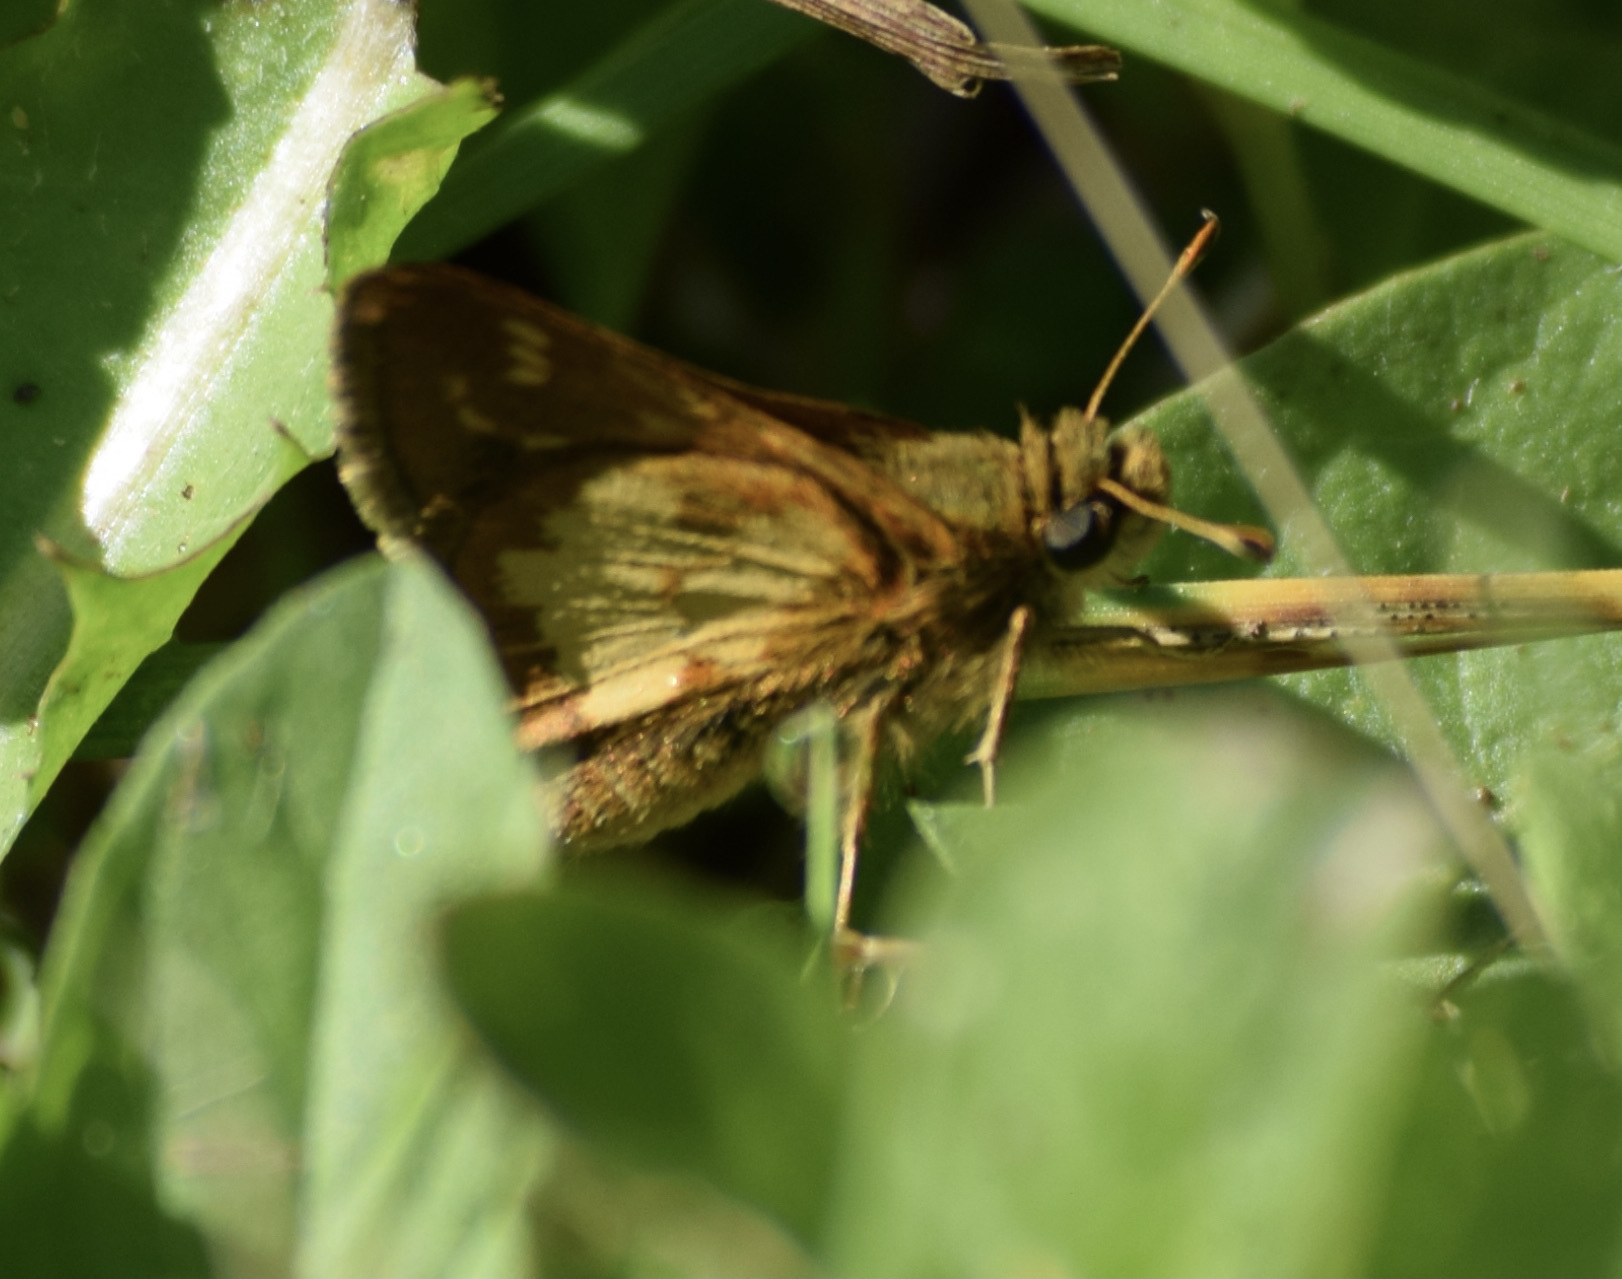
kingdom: Animalia
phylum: Arthropoda
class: Insecta
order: Lepidoptera
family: Hesperiidae
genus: Polites
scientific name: Polites coras
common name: Peck's skipper
